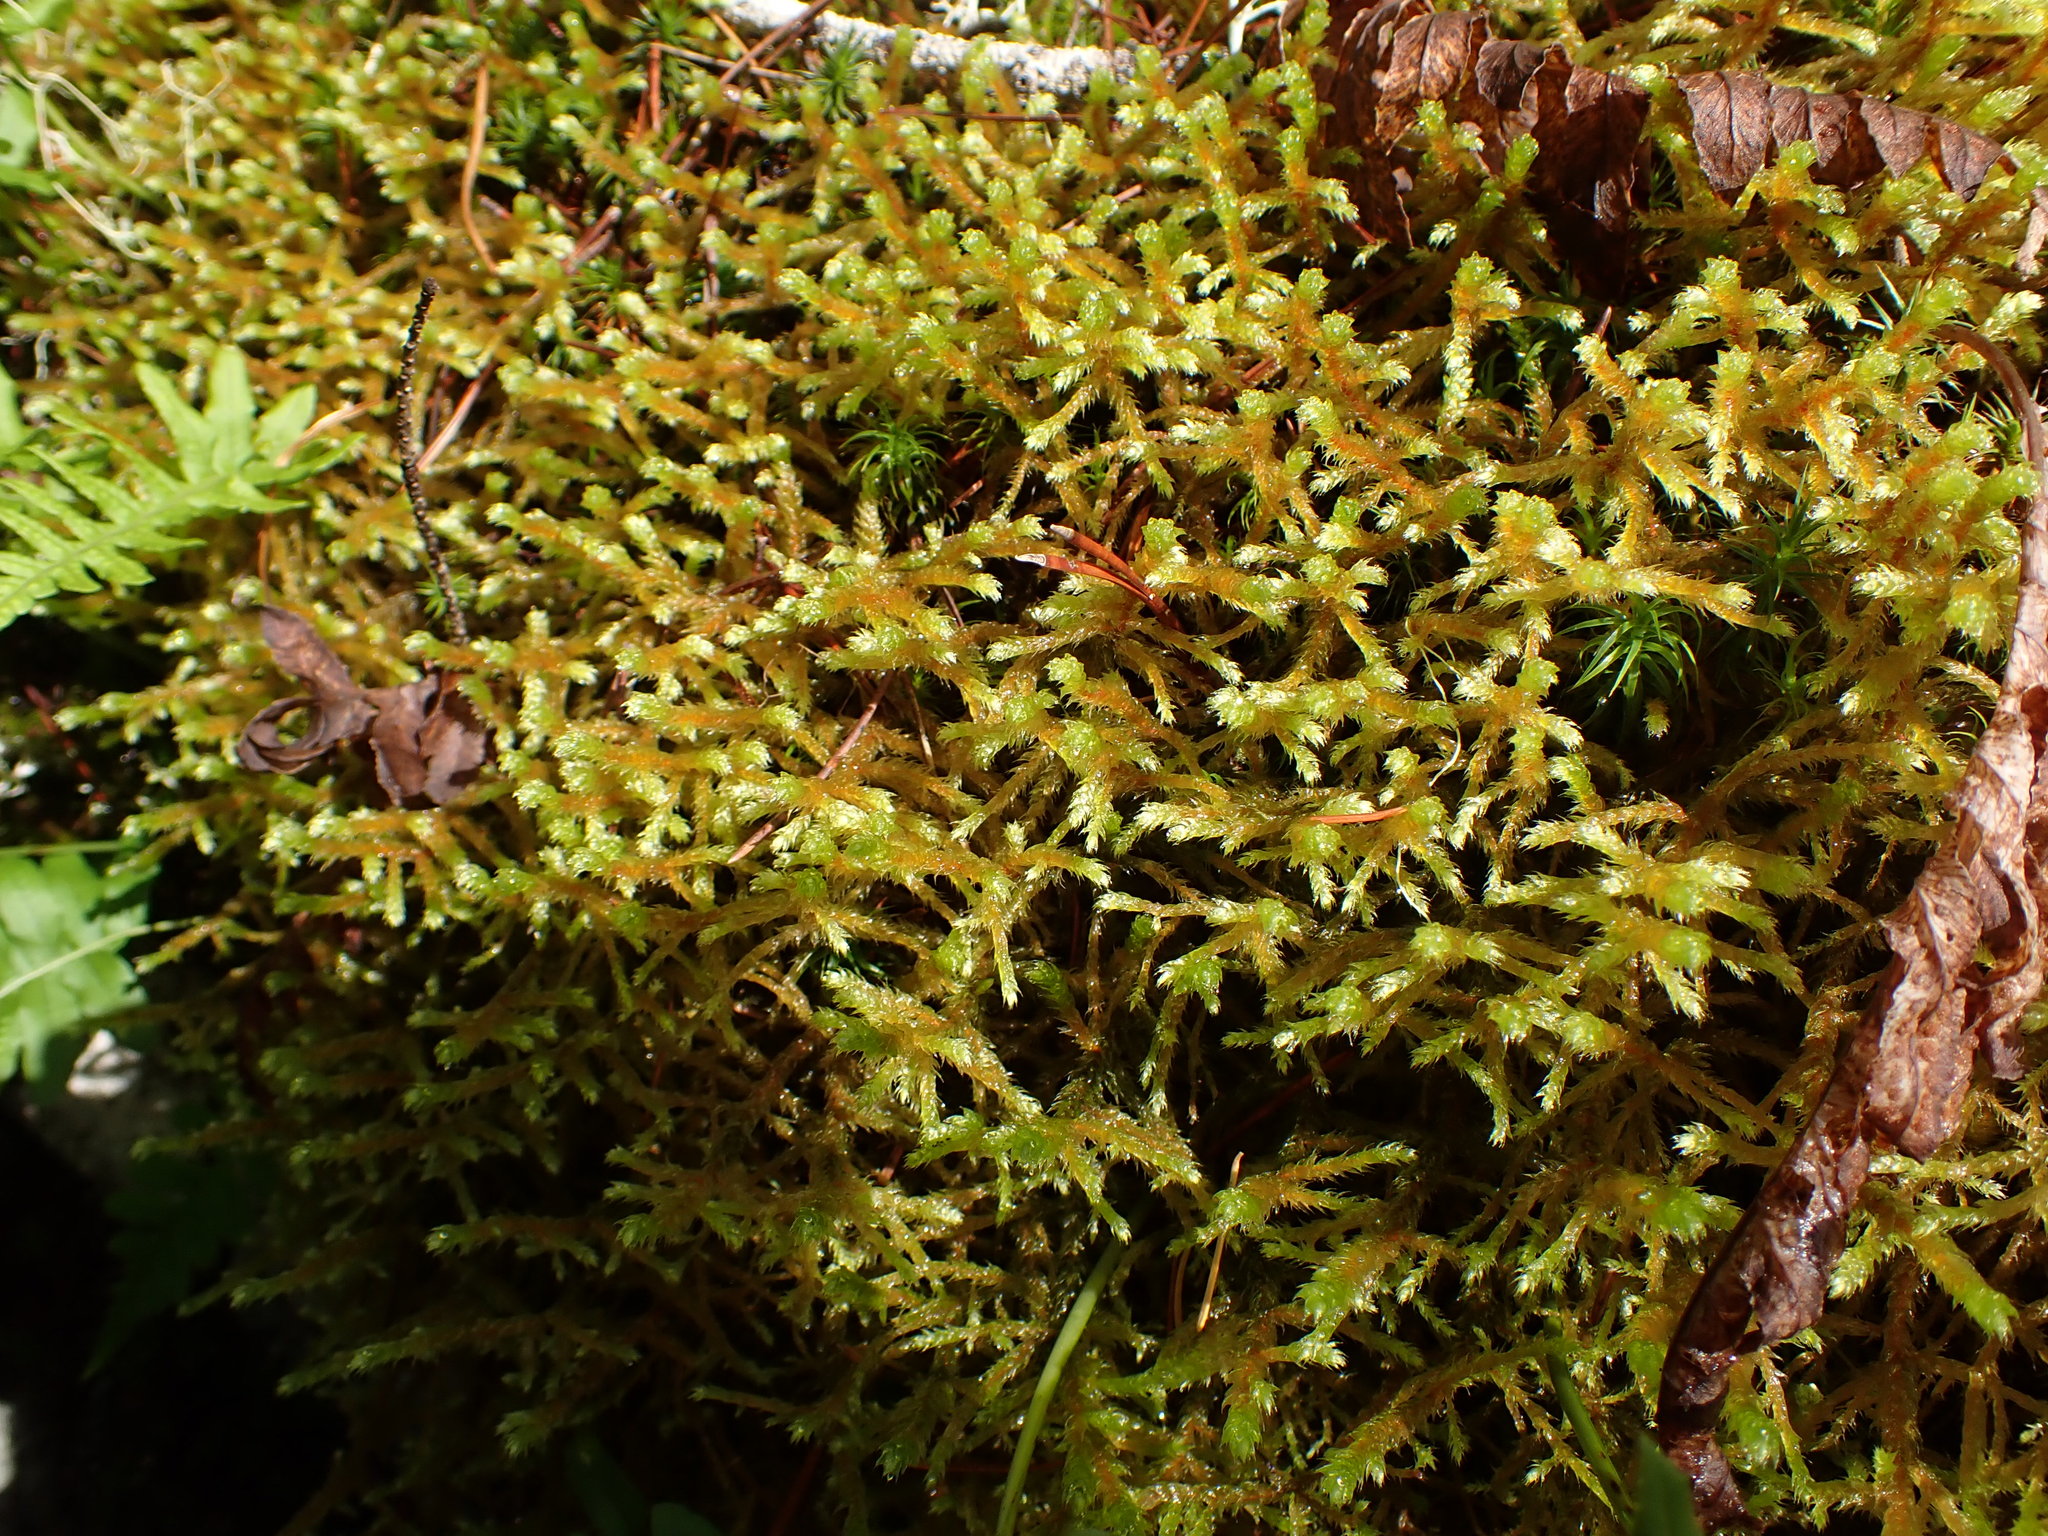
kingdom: Plantae
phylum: Bryophyta
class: Bryopsida
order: Hypnales
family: Antitrichiaceae
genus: Antitrichia
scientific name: Antitrichia curtipendula
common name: Pendulous wing-moss
